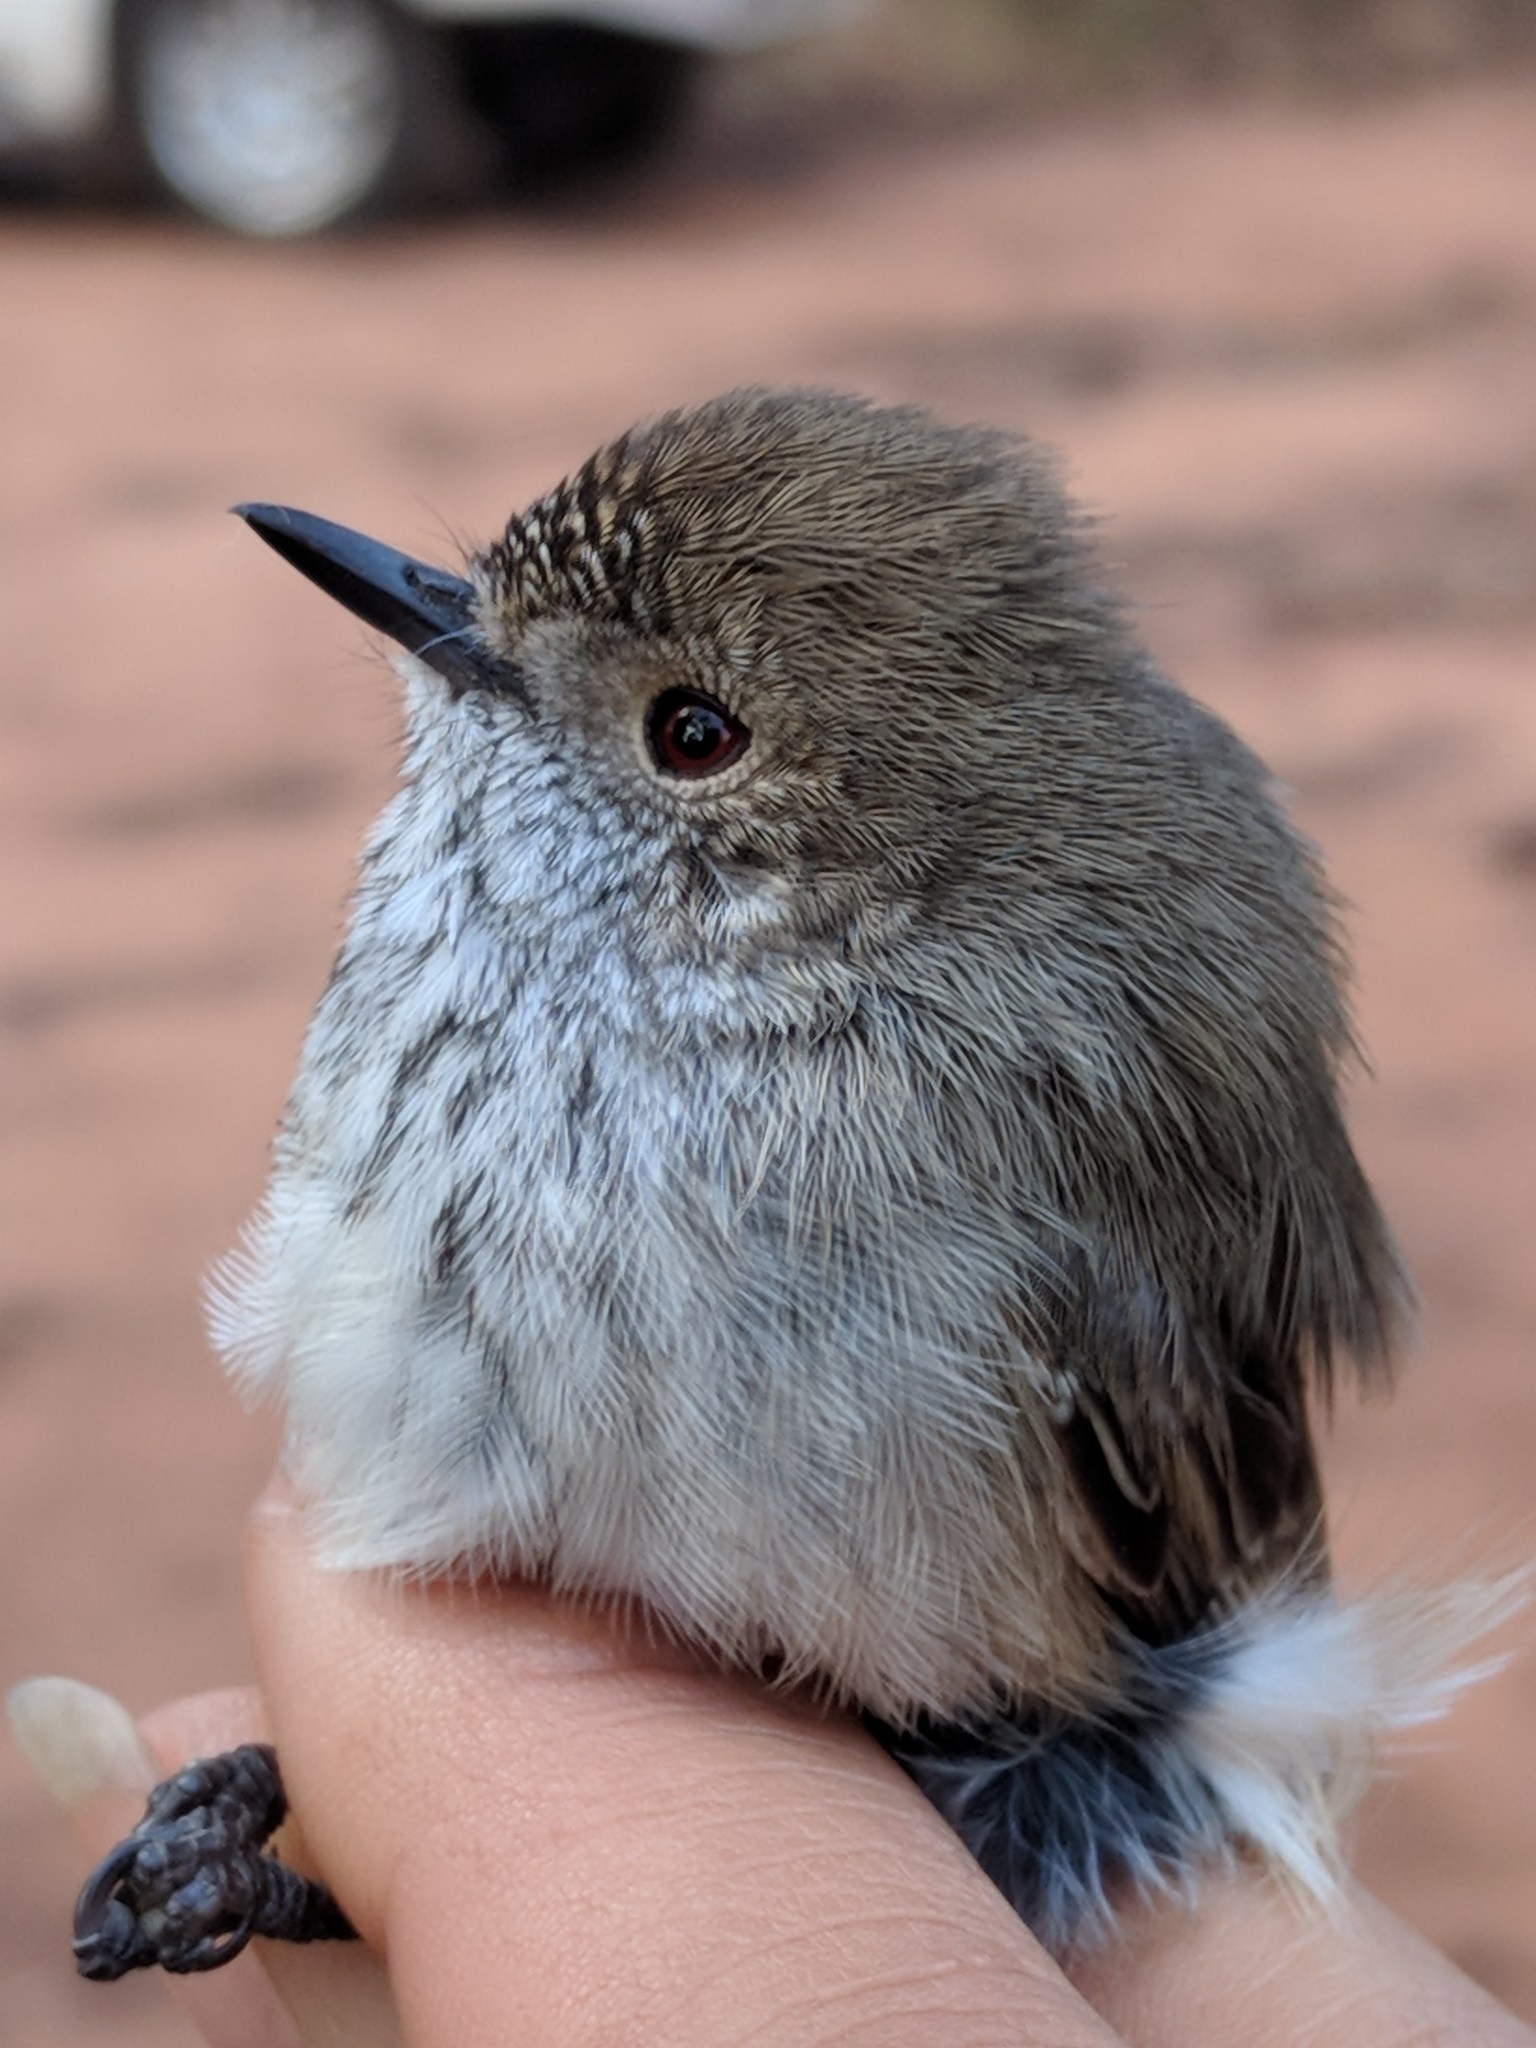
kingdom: Animalia
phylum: Chordata
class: Aves
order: Passeriformes
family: Acanthizidae
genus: Acanthiza
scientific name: Acanthiza apicalis
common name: Inland thornbill
